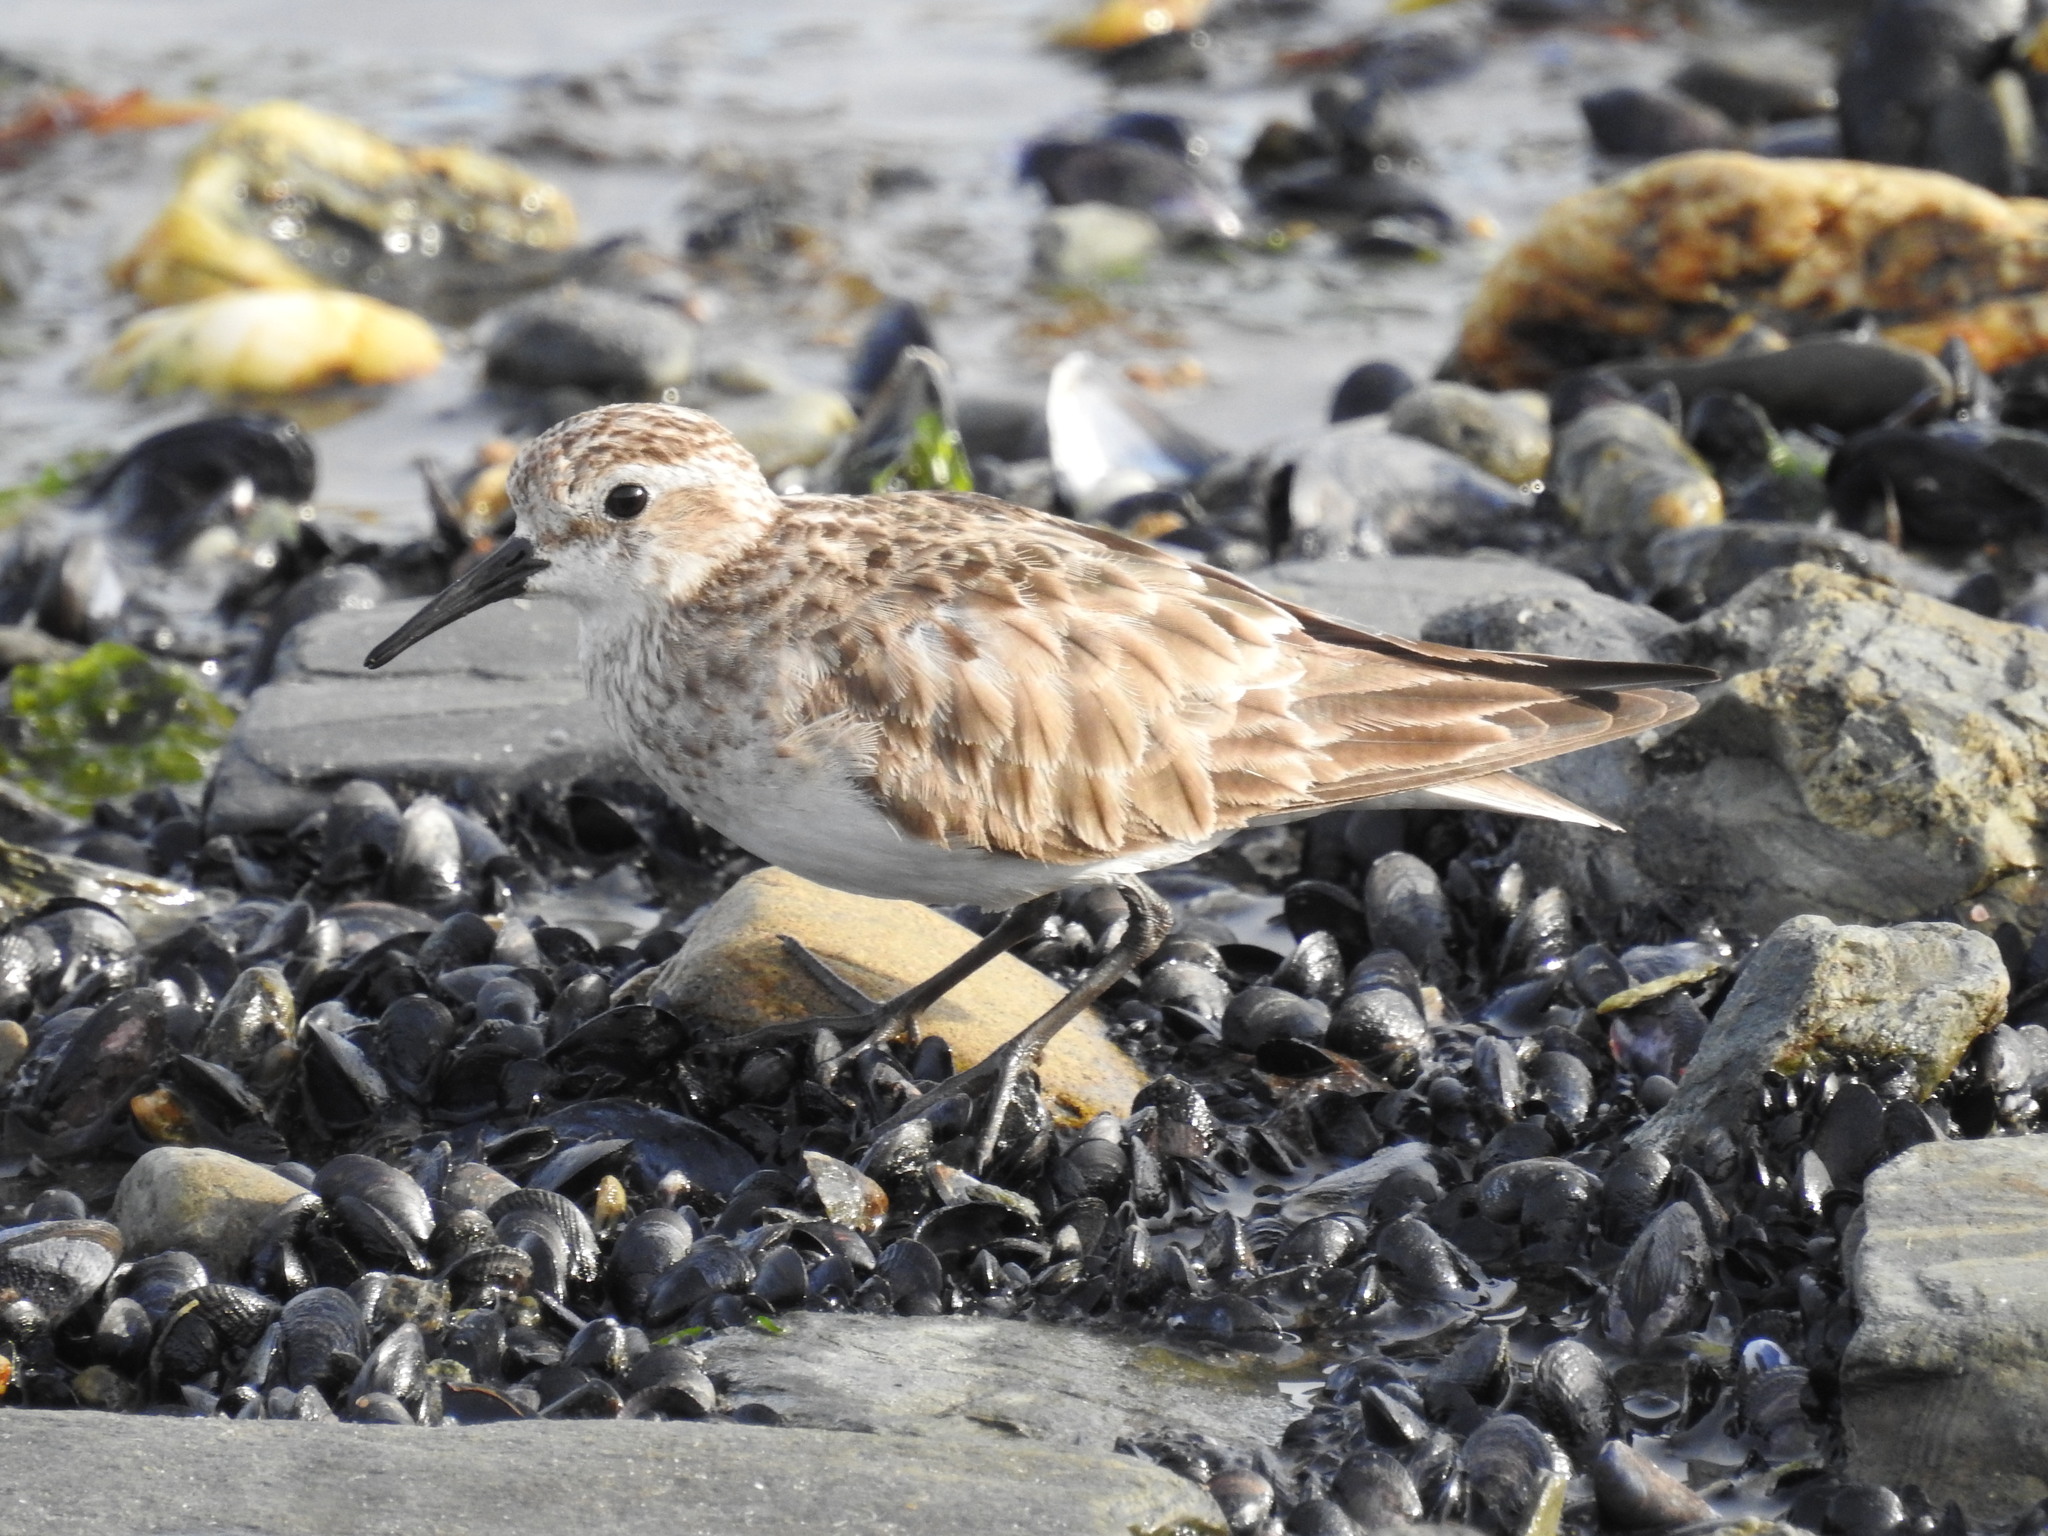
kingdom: Animalia
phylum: Chordata
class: Aves
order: Charadriiformes
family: Scolopacidae
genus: Calidris
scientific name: Calidris bairdii
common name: Baird's sandpiper
